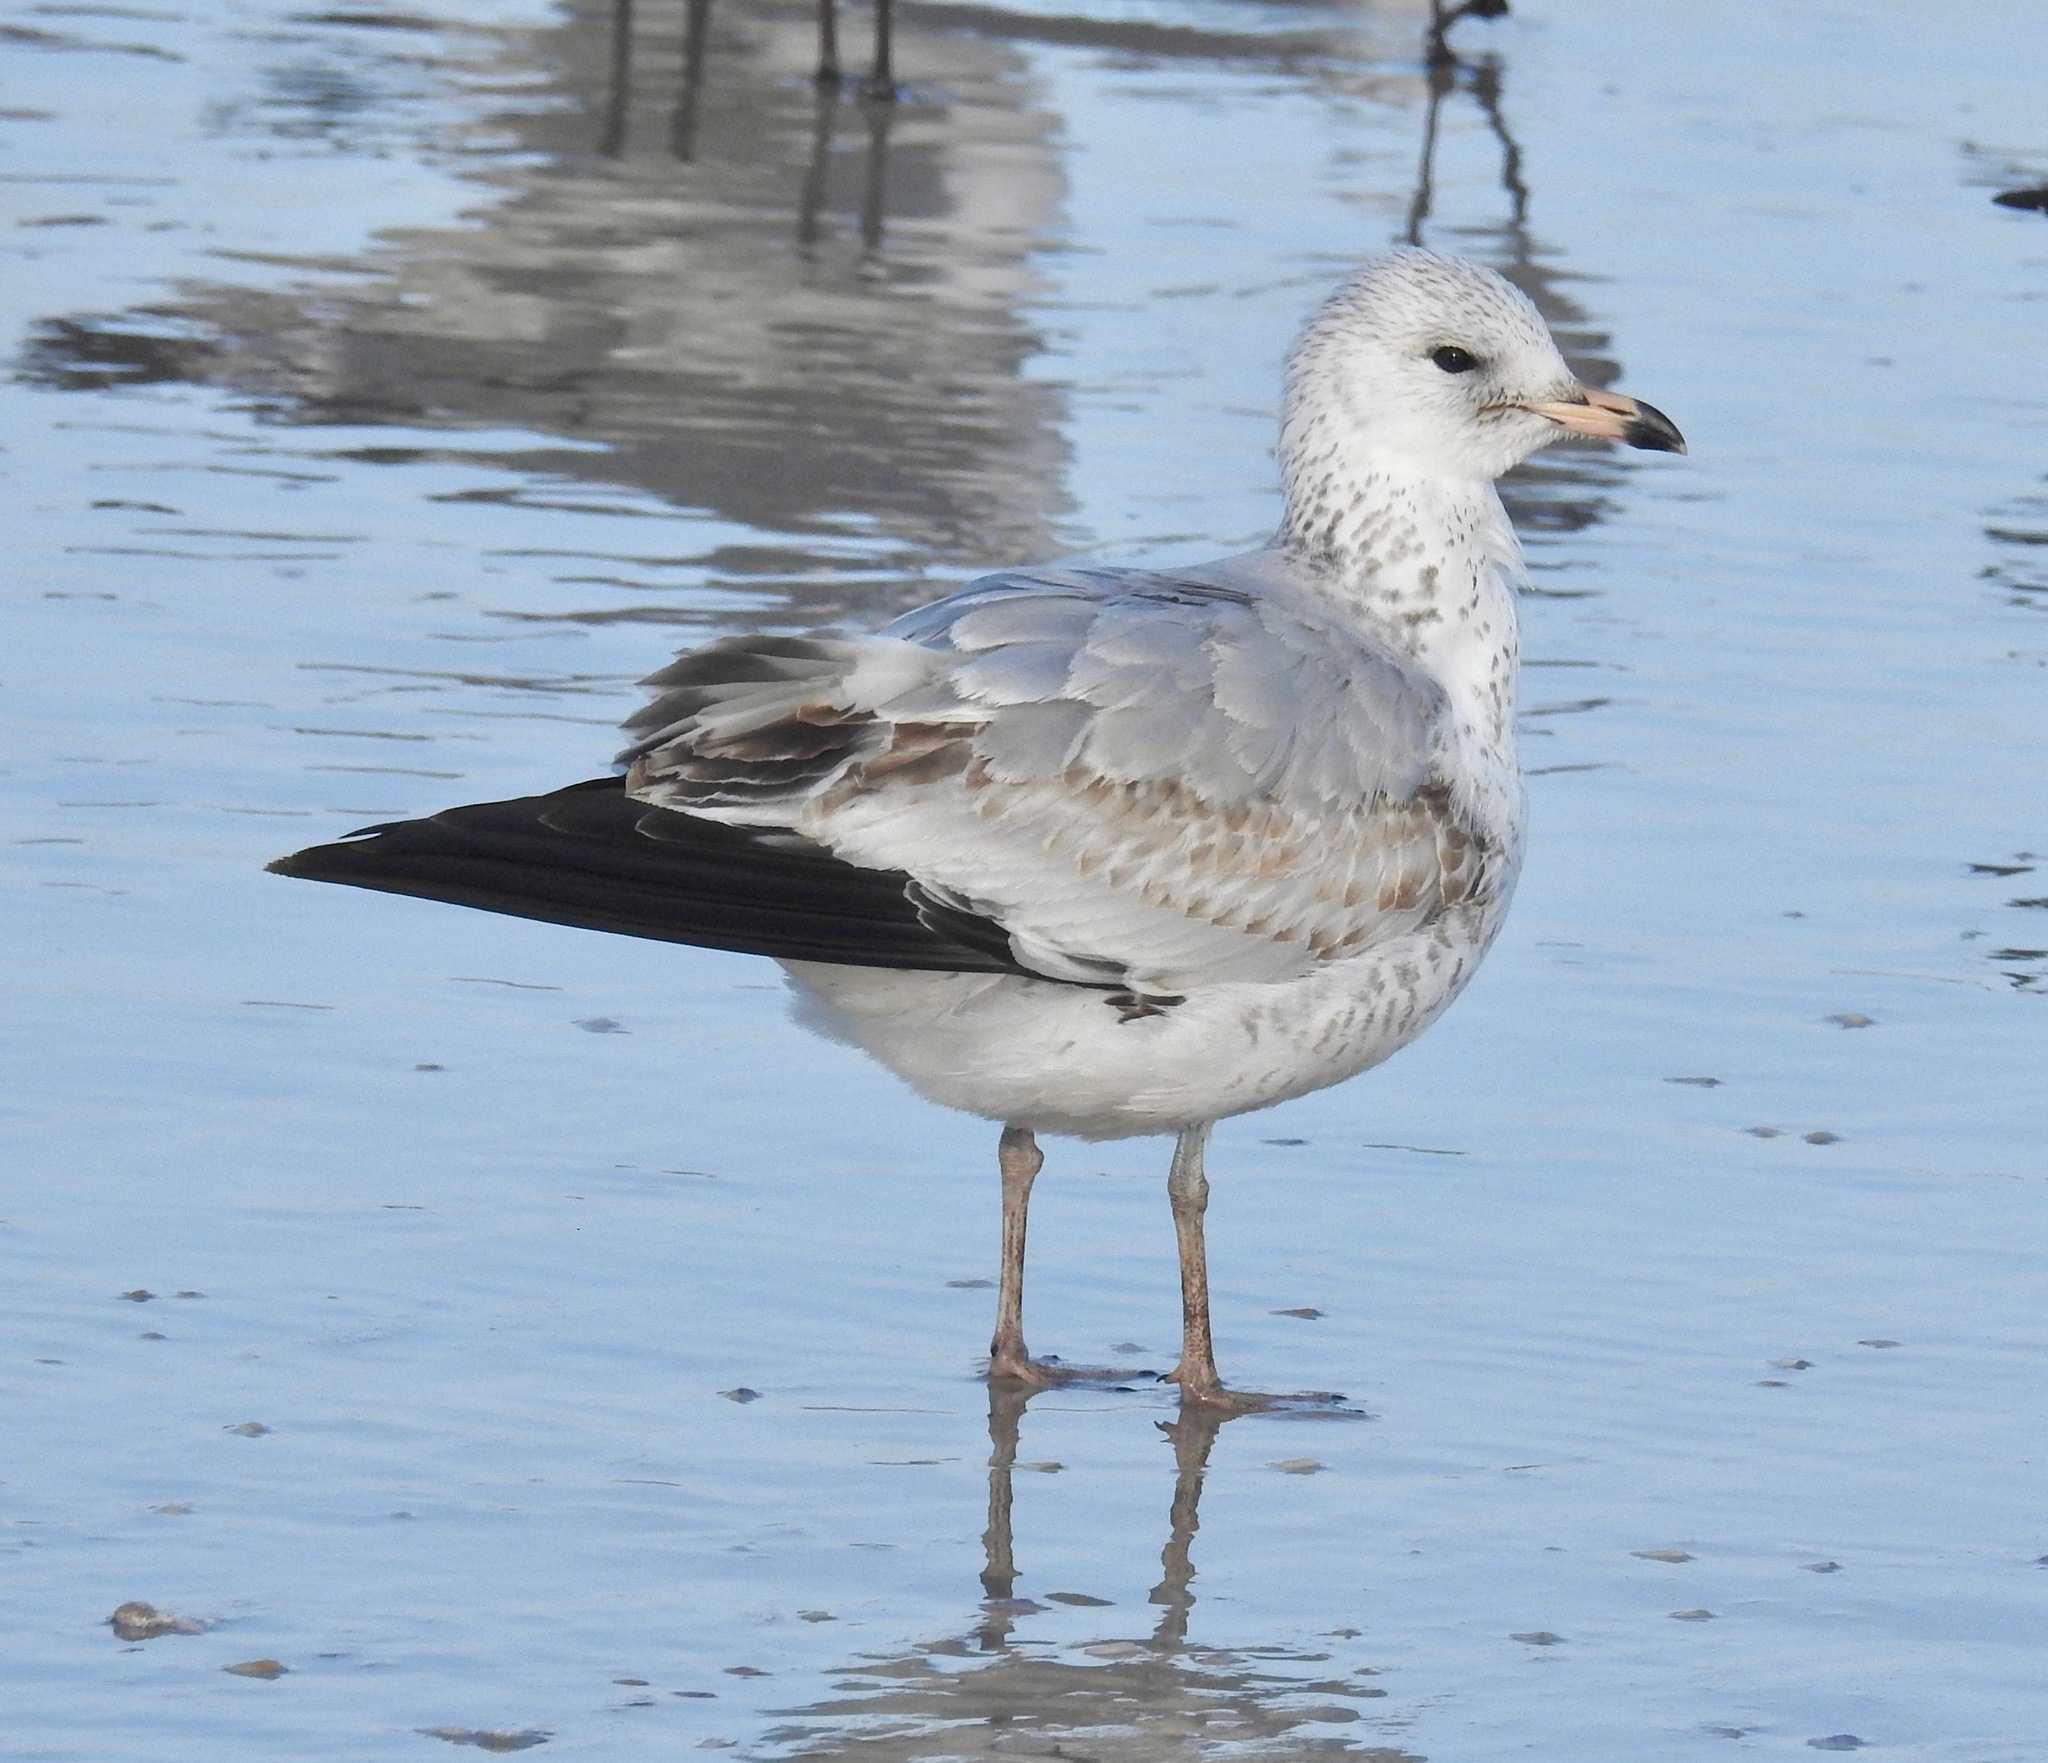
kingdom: Animalia
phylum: Chordata
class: Aves
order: Charadriiformes
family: Laridae
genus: Larus
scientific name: Larus delawarensis
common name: Ring-billed gull
